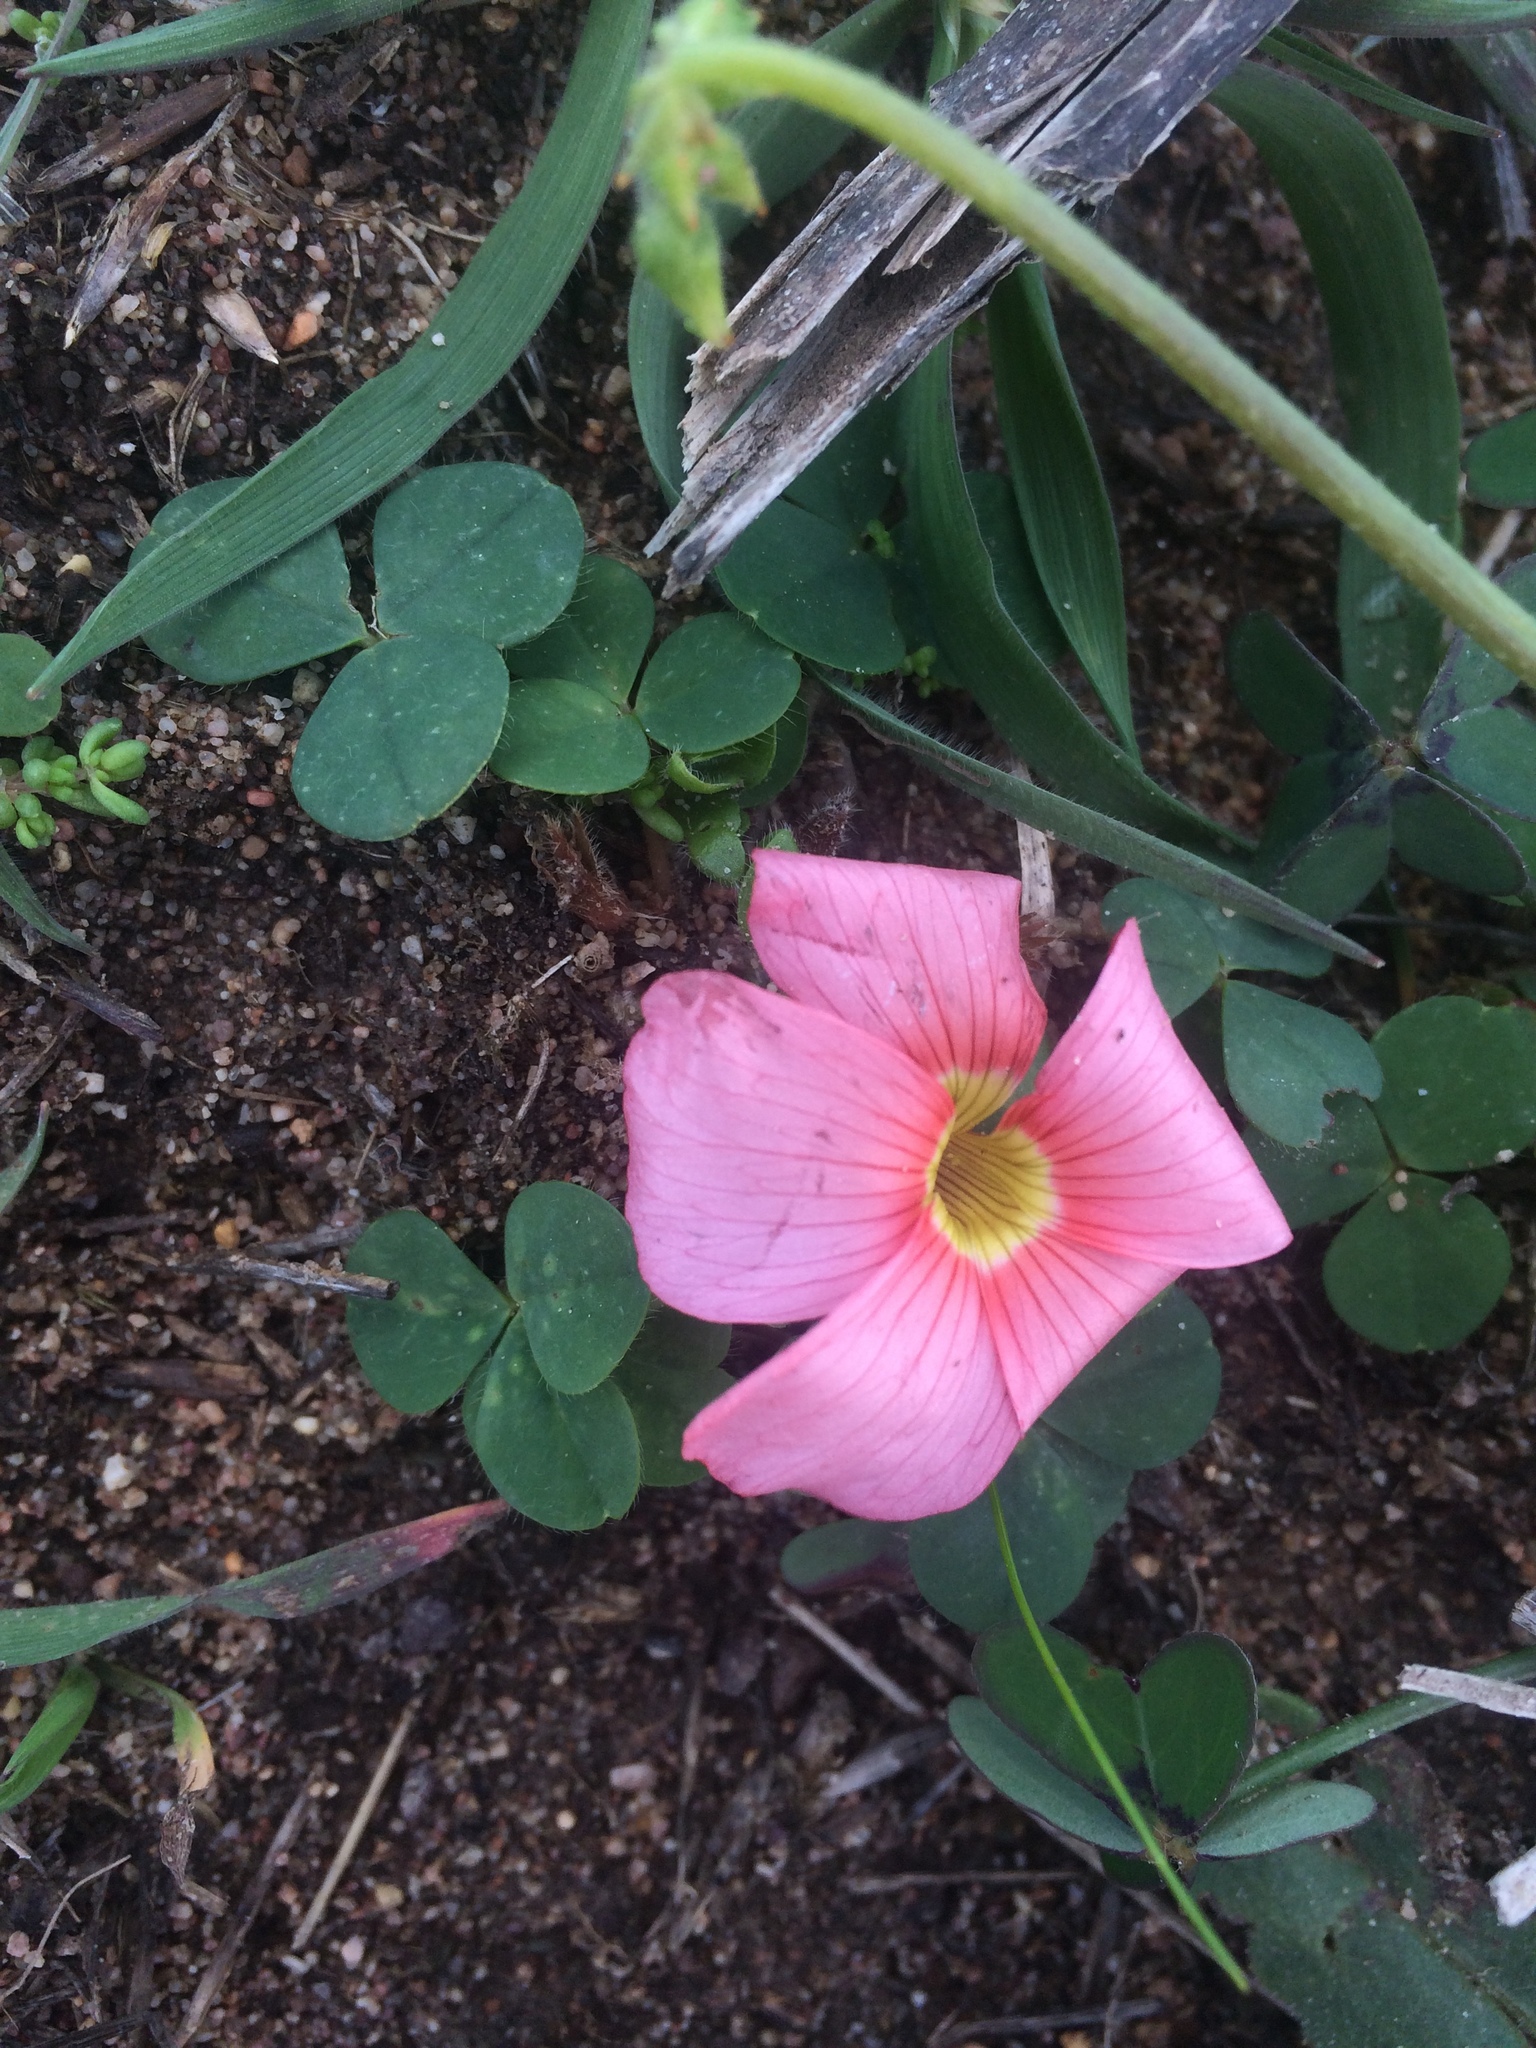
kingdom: Plantae
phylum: Tracheophyta
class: Magnoliopsida
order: Oxalidales
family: Oxalidaceae
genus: Oxalis
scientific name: Oxalis eckloniana
